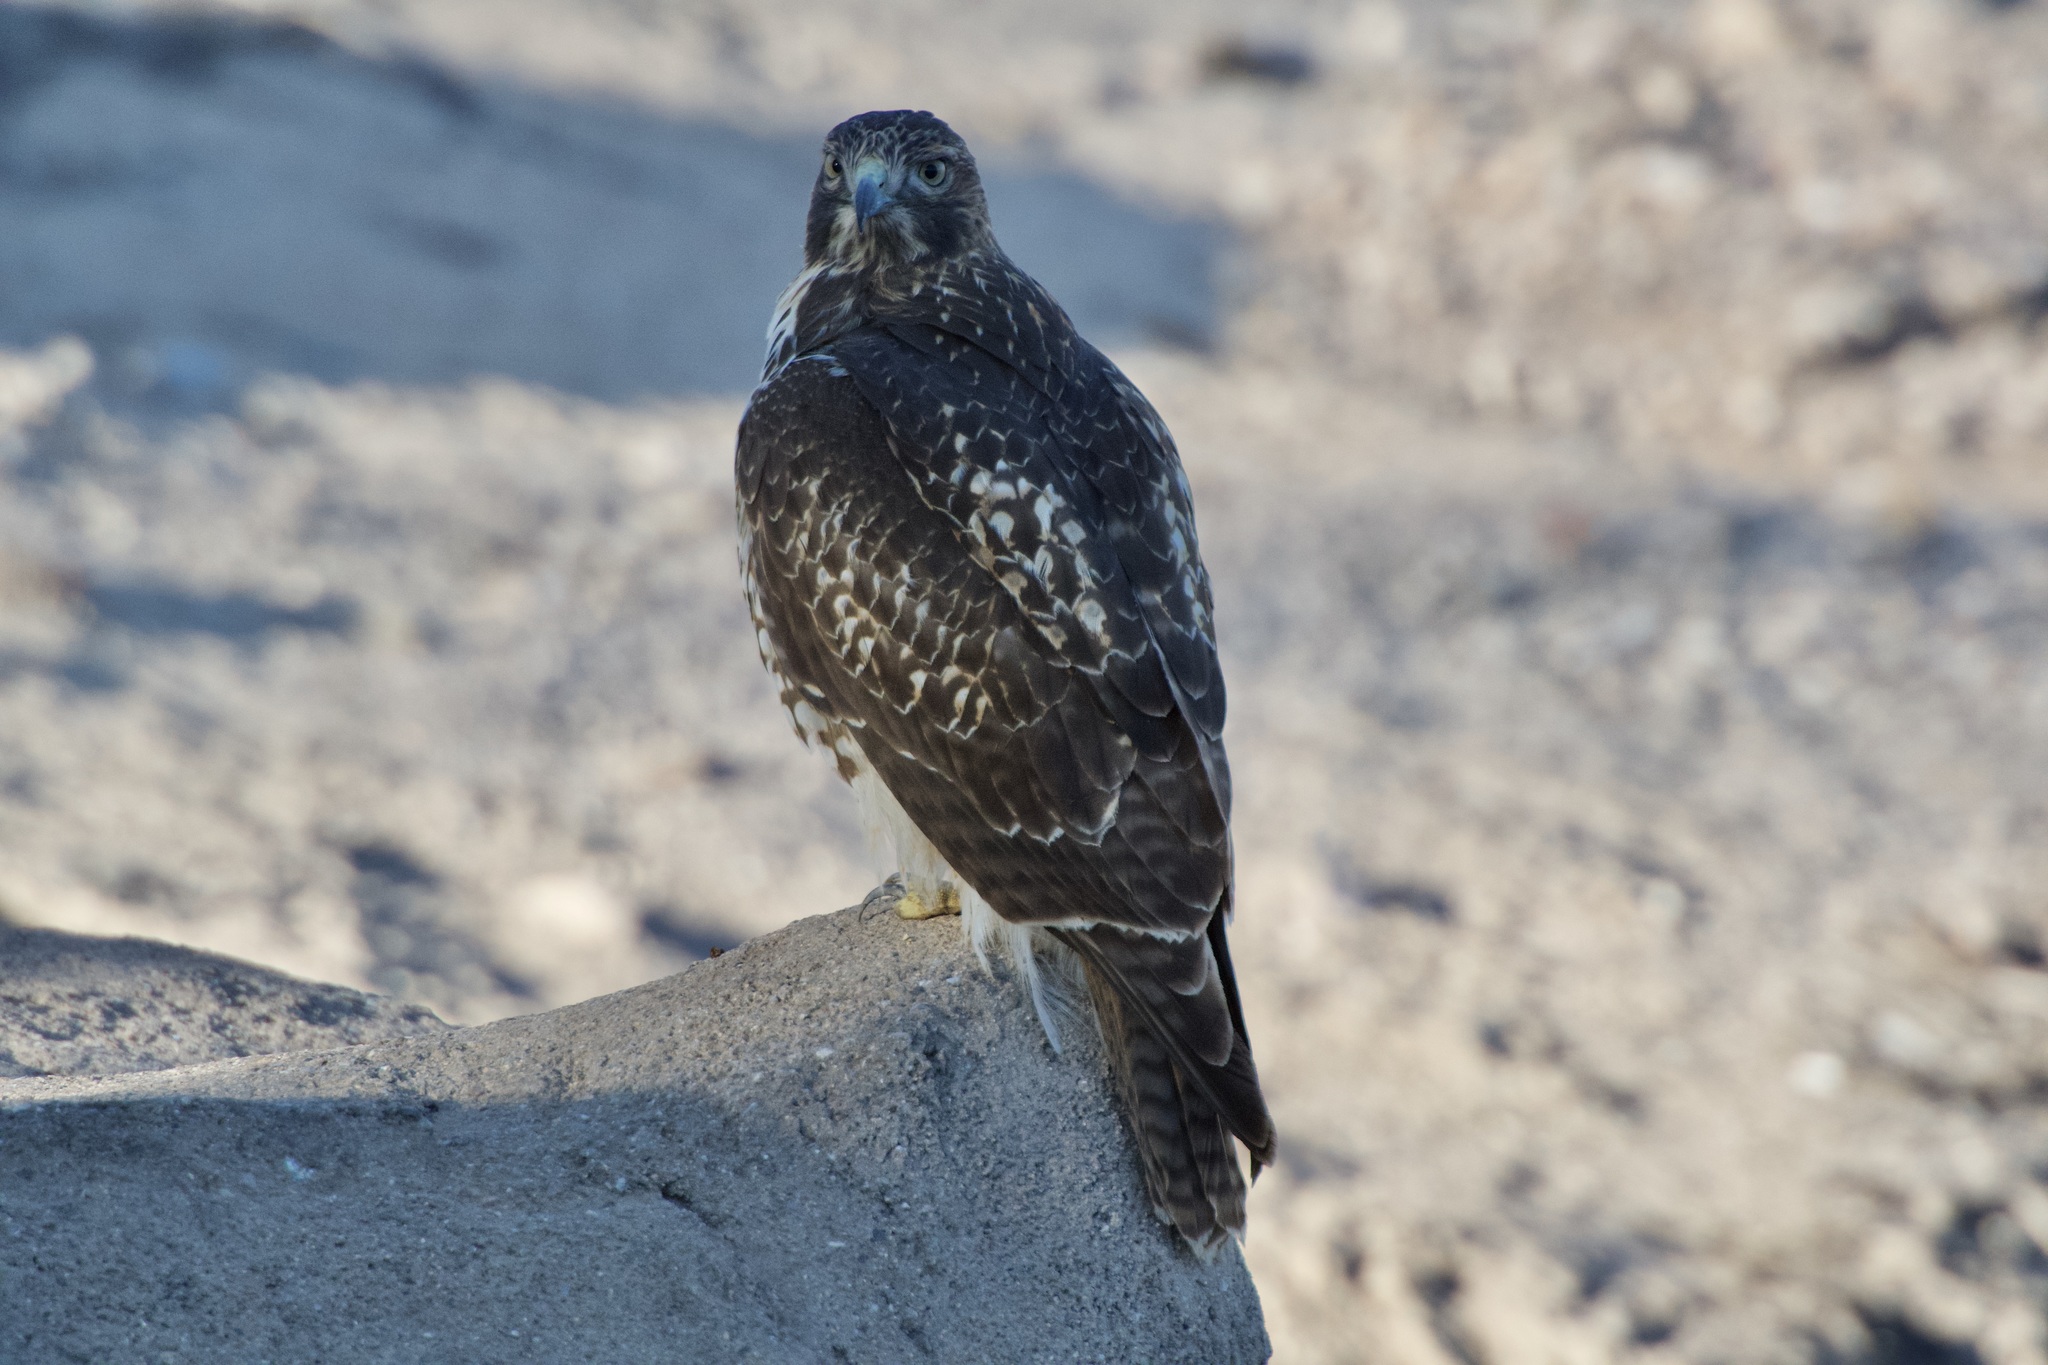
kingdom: Animalia
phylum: Chordata
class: Aves
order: Accipitriformes
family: Accipitridae
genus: Buteo
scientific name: Buteo jamaicensis
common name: Red-tailed hawk
